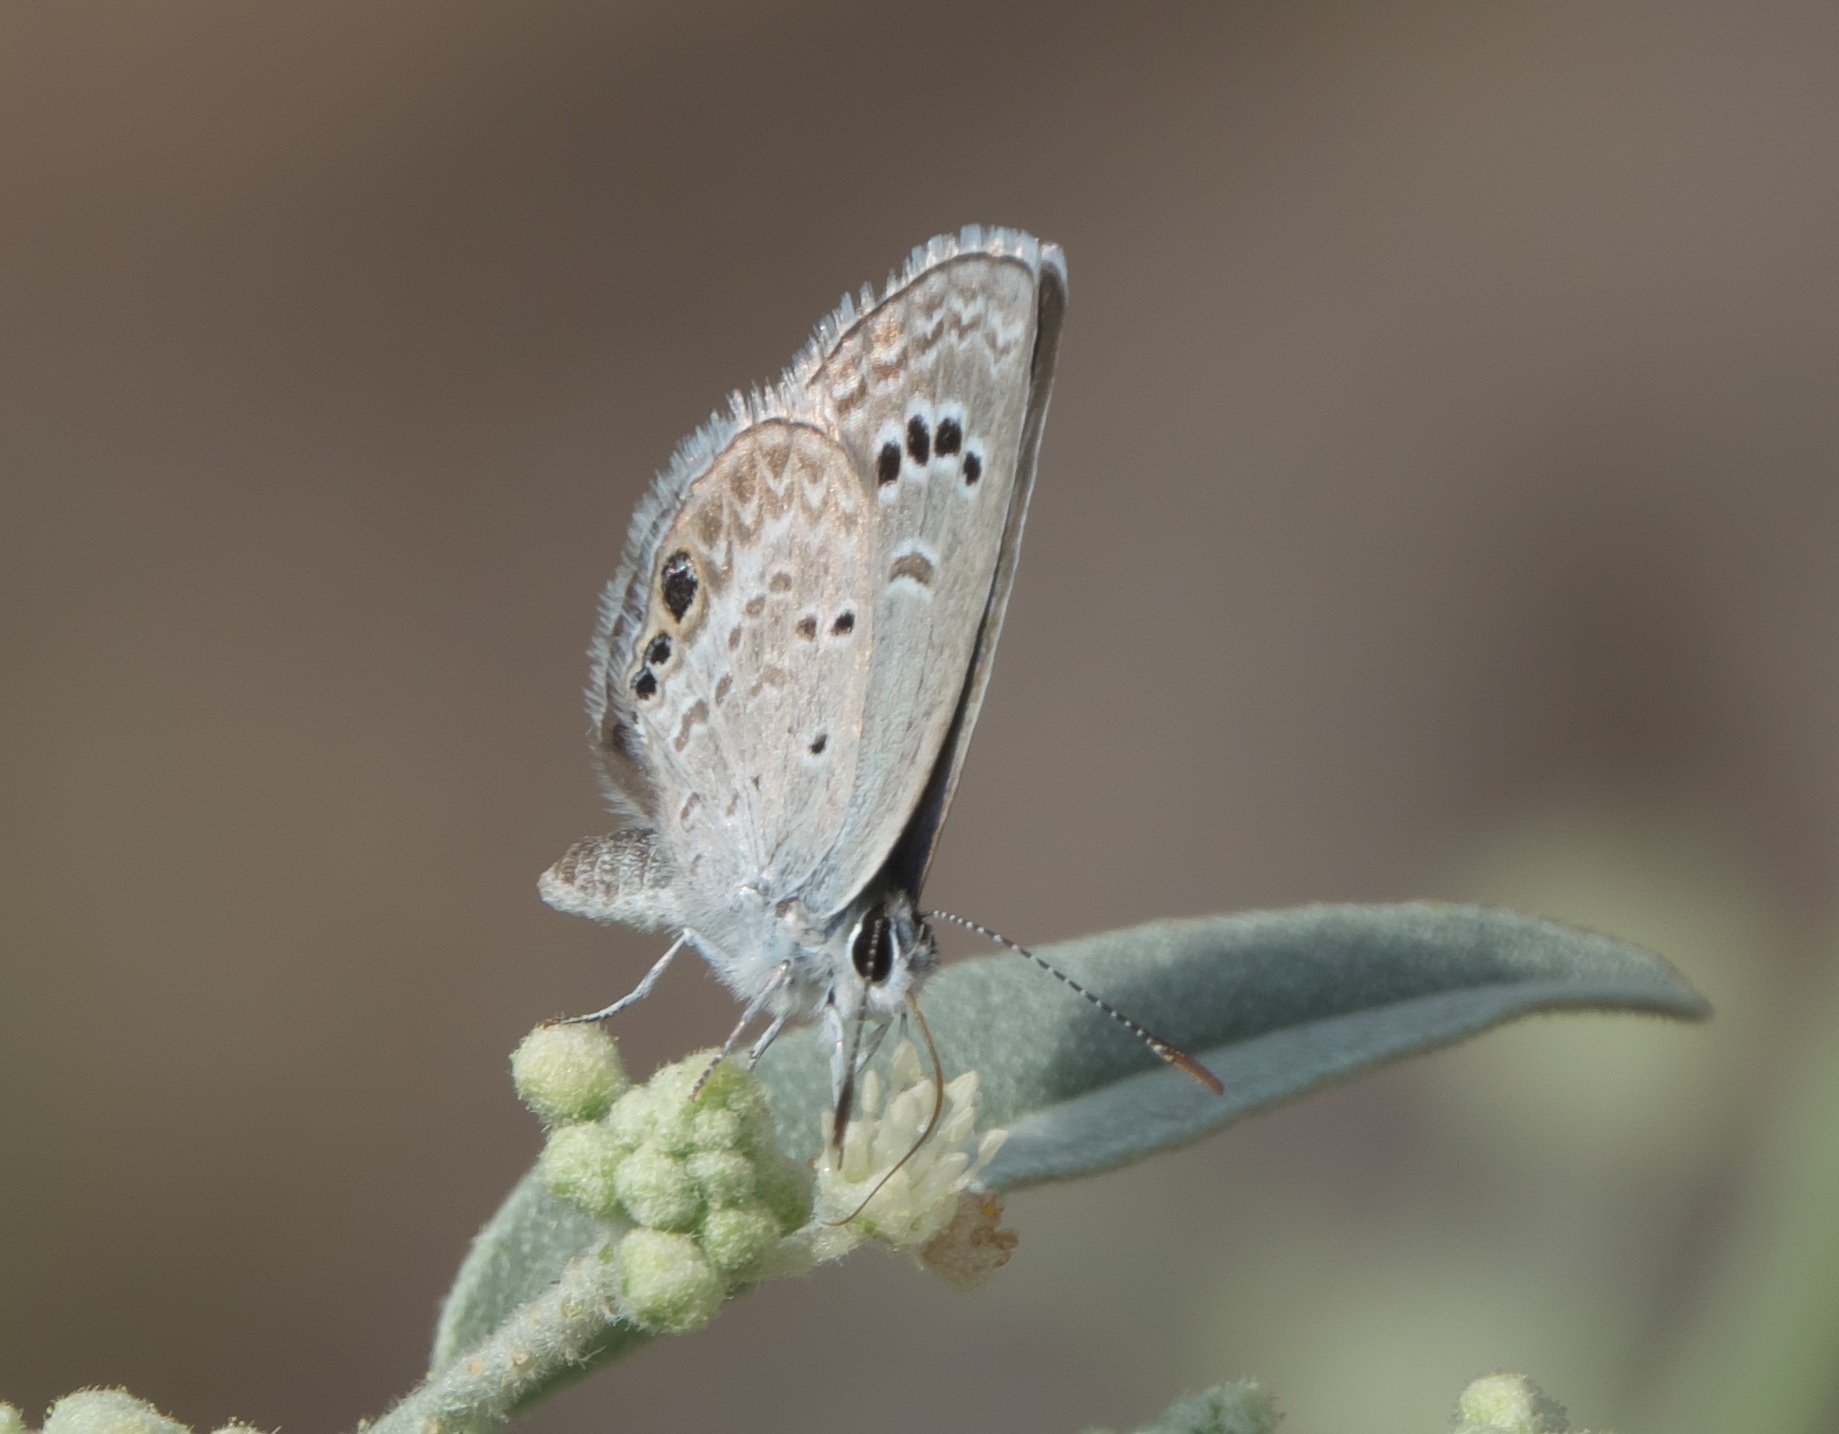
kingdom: Animalia
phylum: Arthropoda
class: Insecta
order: Lepidoptera
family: Lycaenidae
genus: Echinargus
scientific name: Echinargus isola
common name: Reakirt's blue
